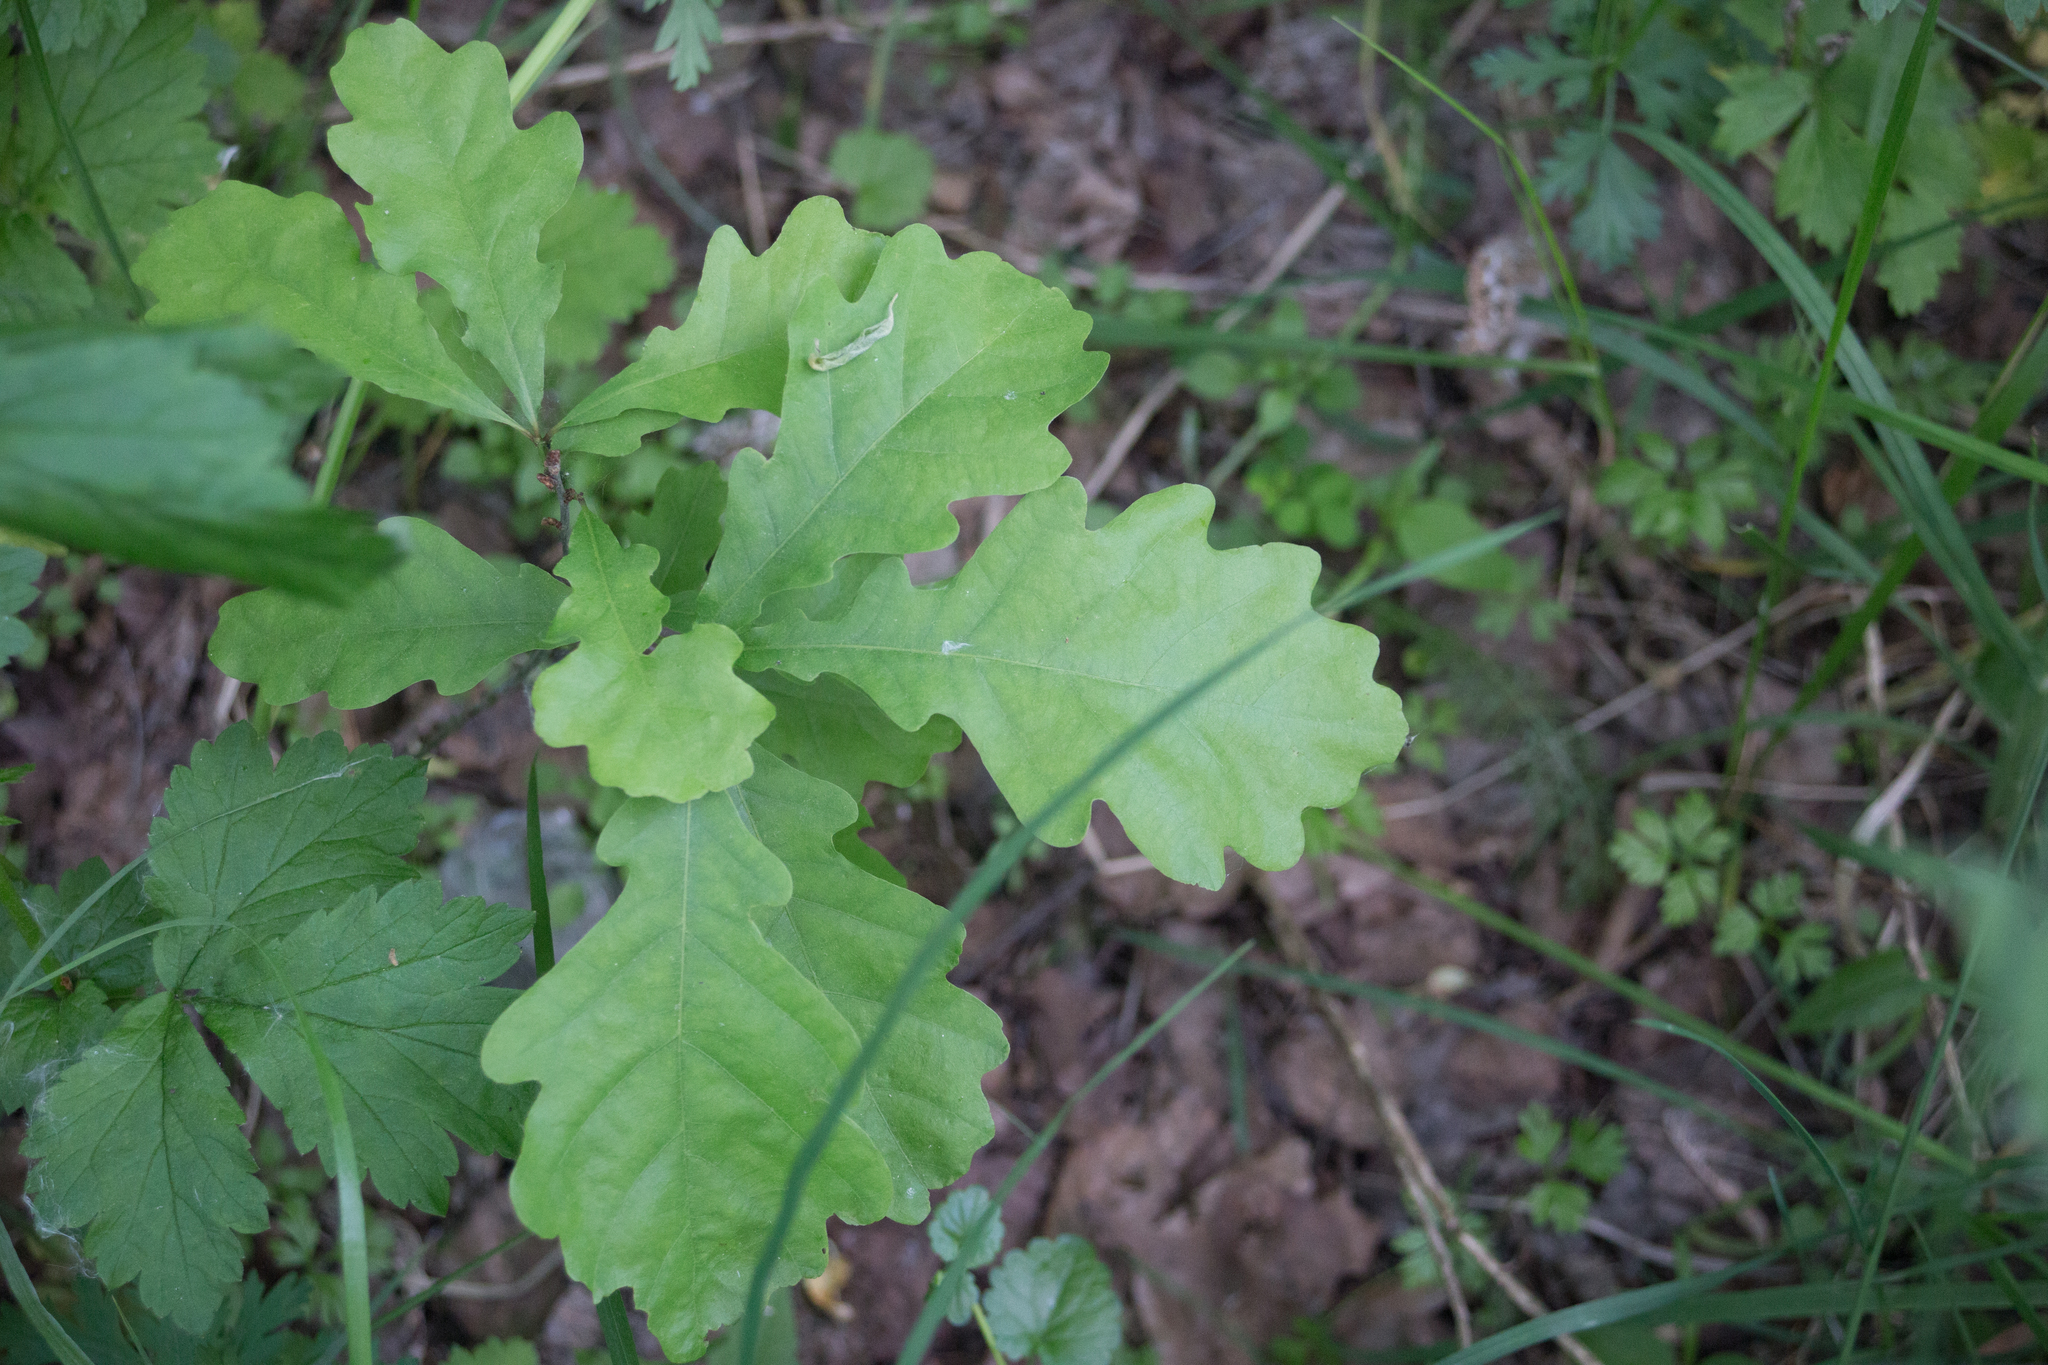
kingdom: Plantae
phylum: Tracheophyta
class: Magnoliopsida
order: Fagales
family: Fagaceae
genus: Quercus
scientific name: Quercus robur
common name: Pedunculate oak
